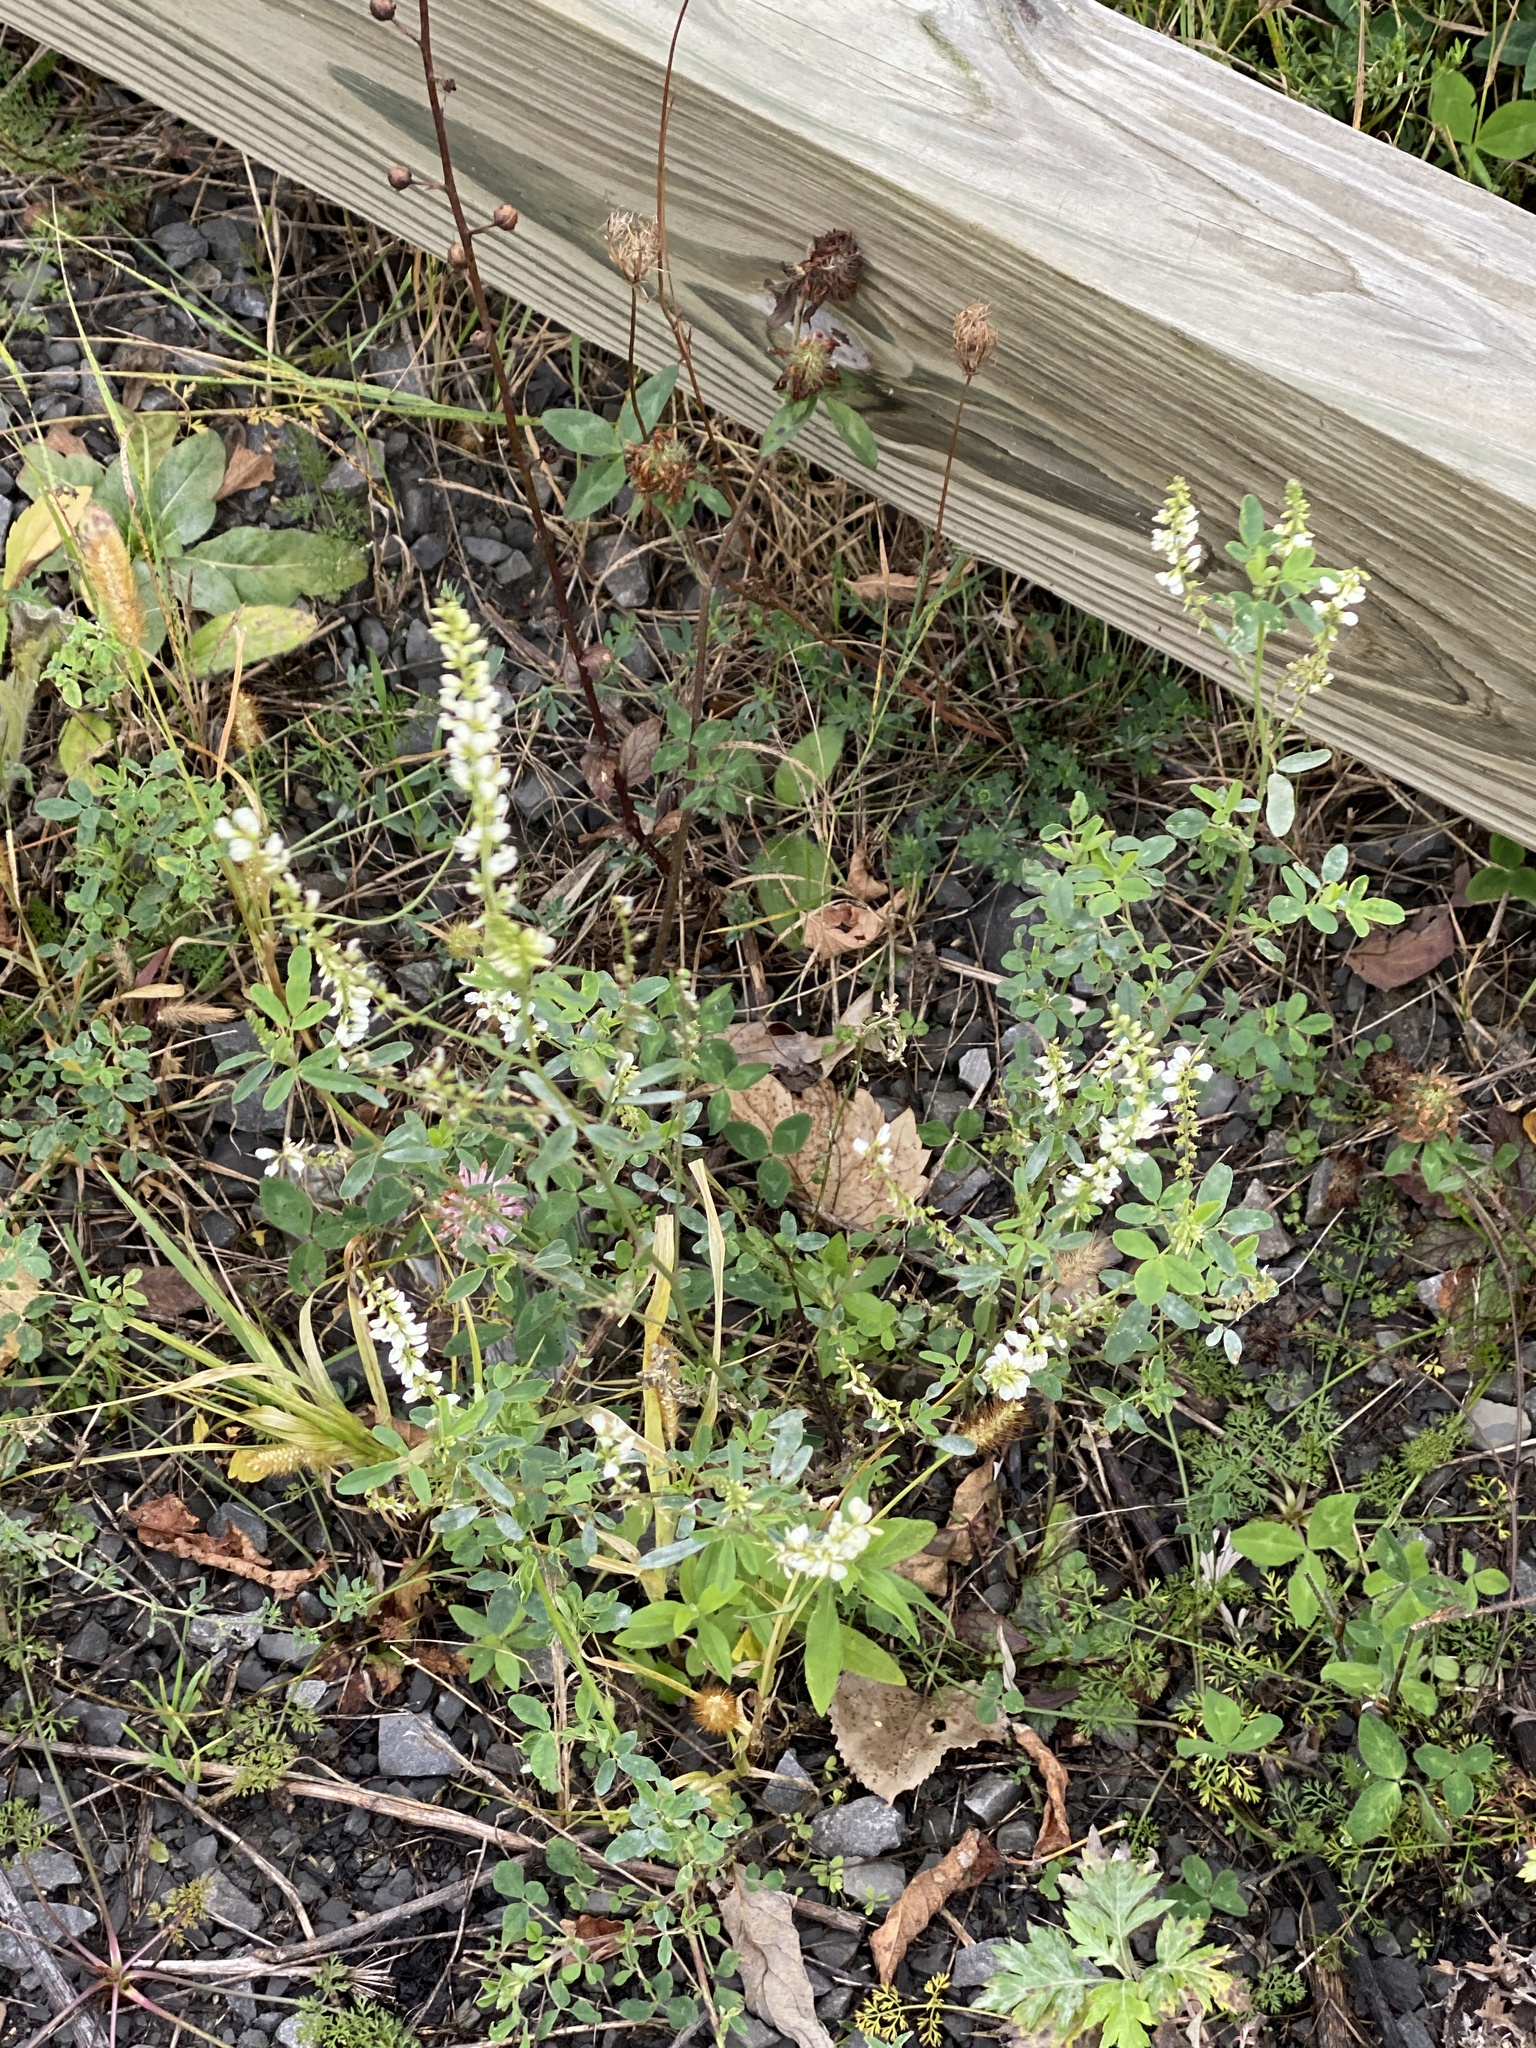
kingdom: Plantae
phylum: Tracheophyta
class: Magnoliopsida
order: Fabales
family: Fabaceae
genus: Melilotus
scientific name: Melilotus albus
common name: White melilot
